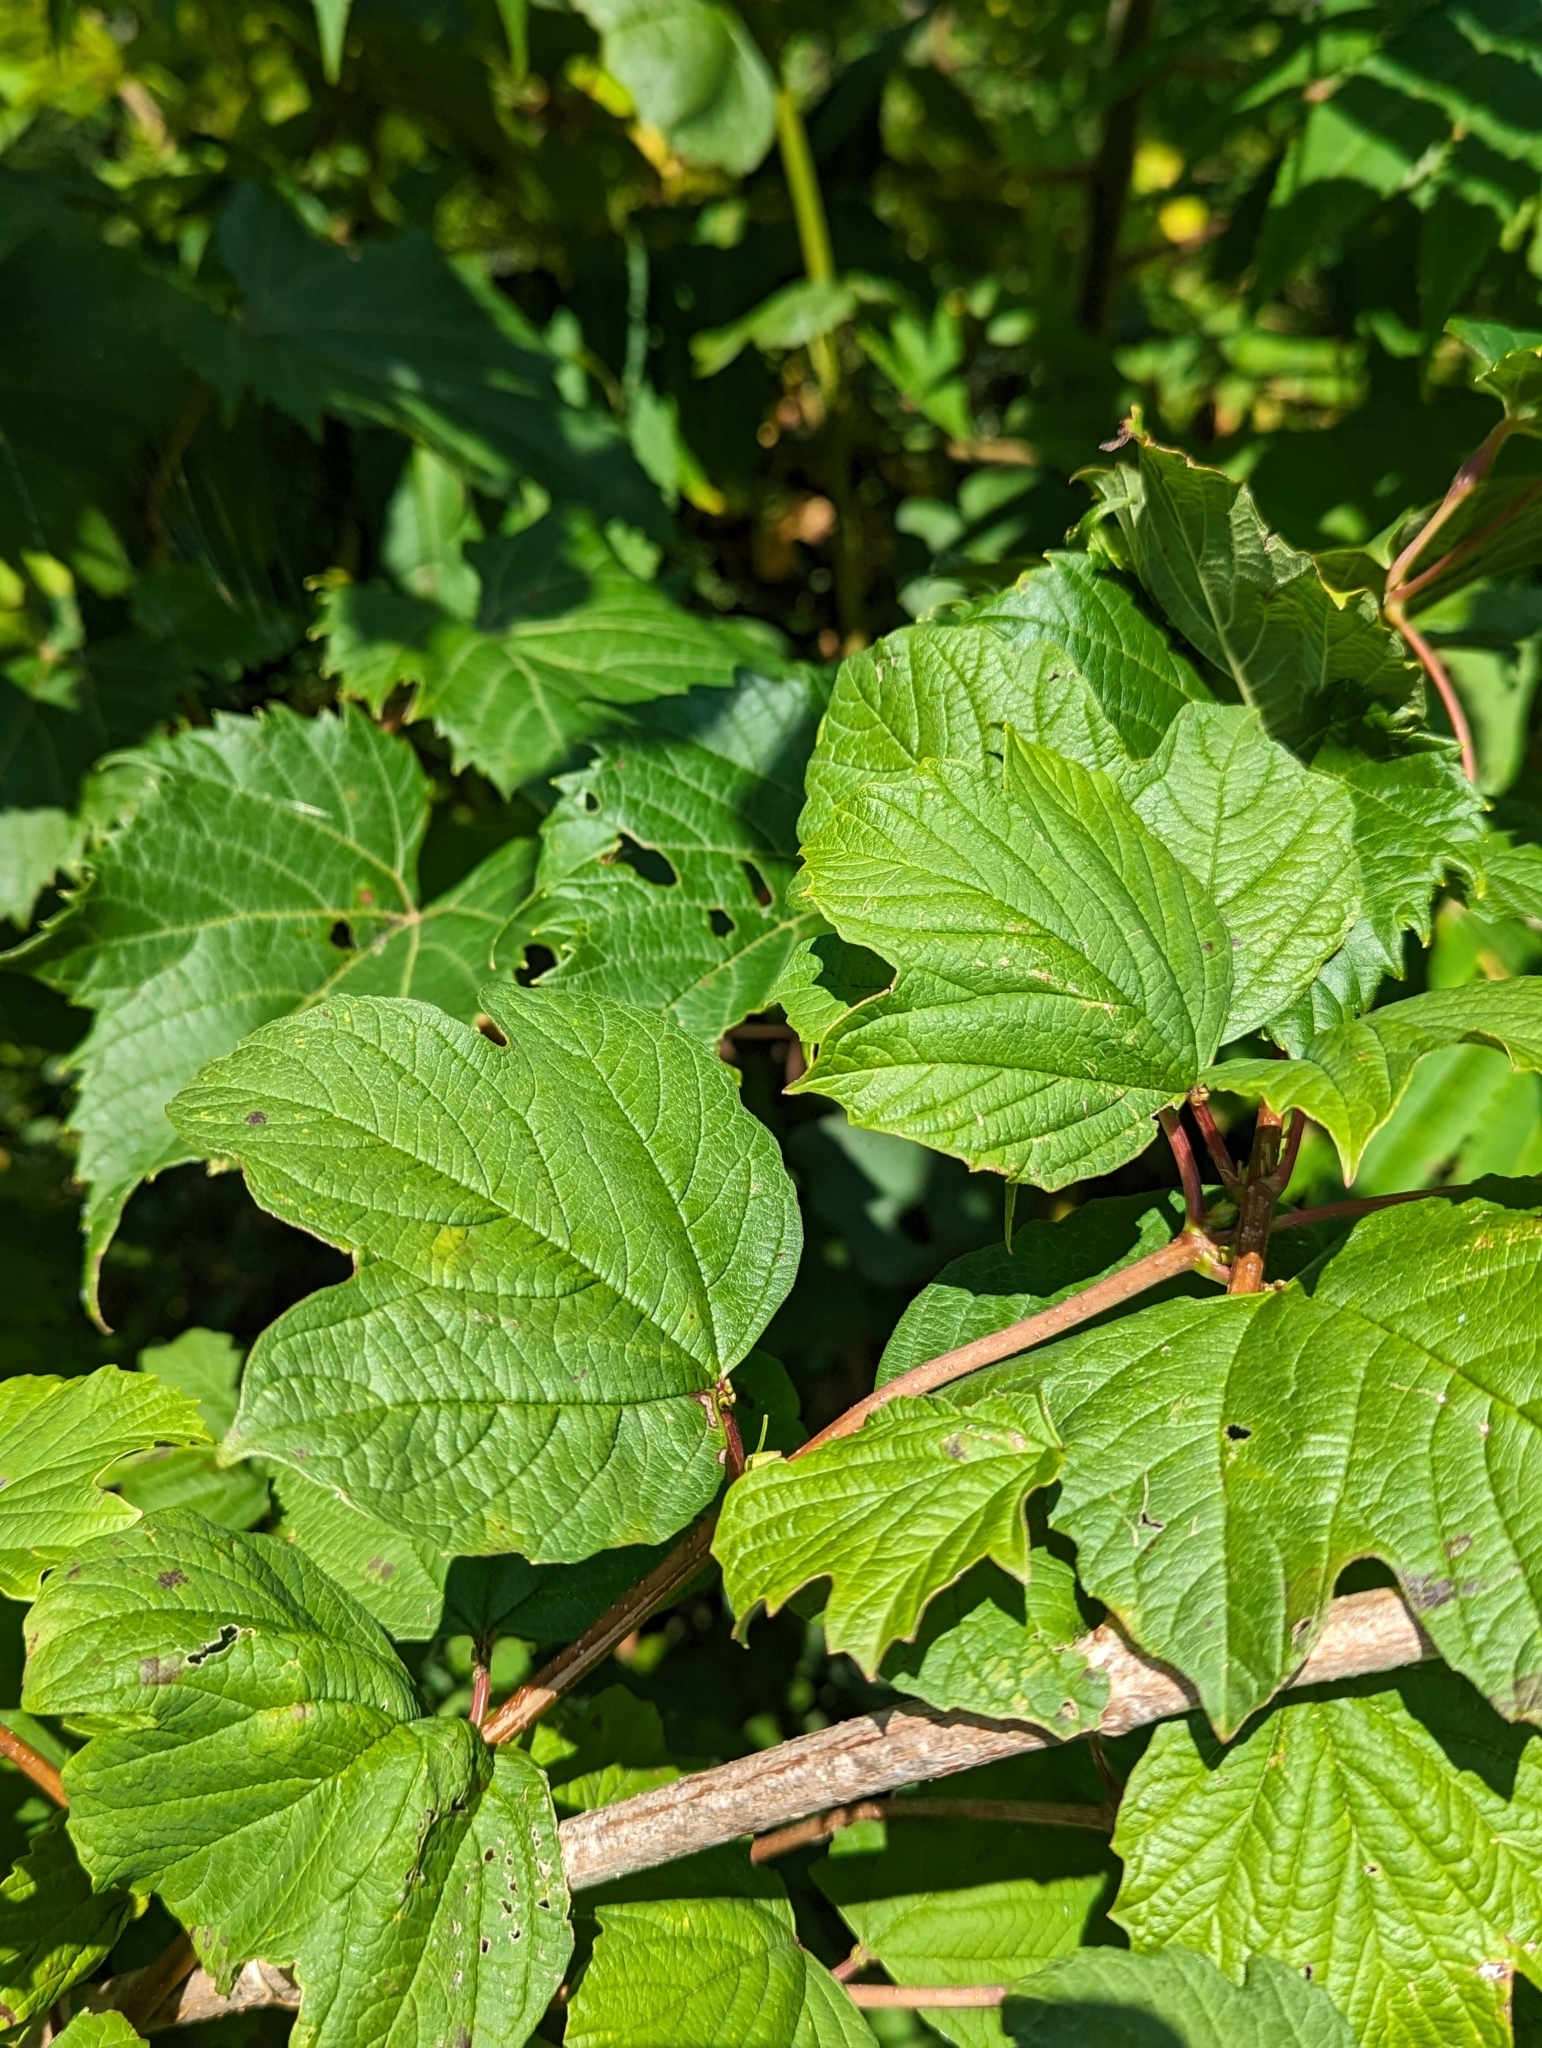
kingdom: Plantae
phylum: Tracheophyta
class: Magnoliopsida
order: Dipsacales
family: Viburnaceae
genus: Viburnum
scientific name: Viburnum opulus
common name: Guelder-rose
